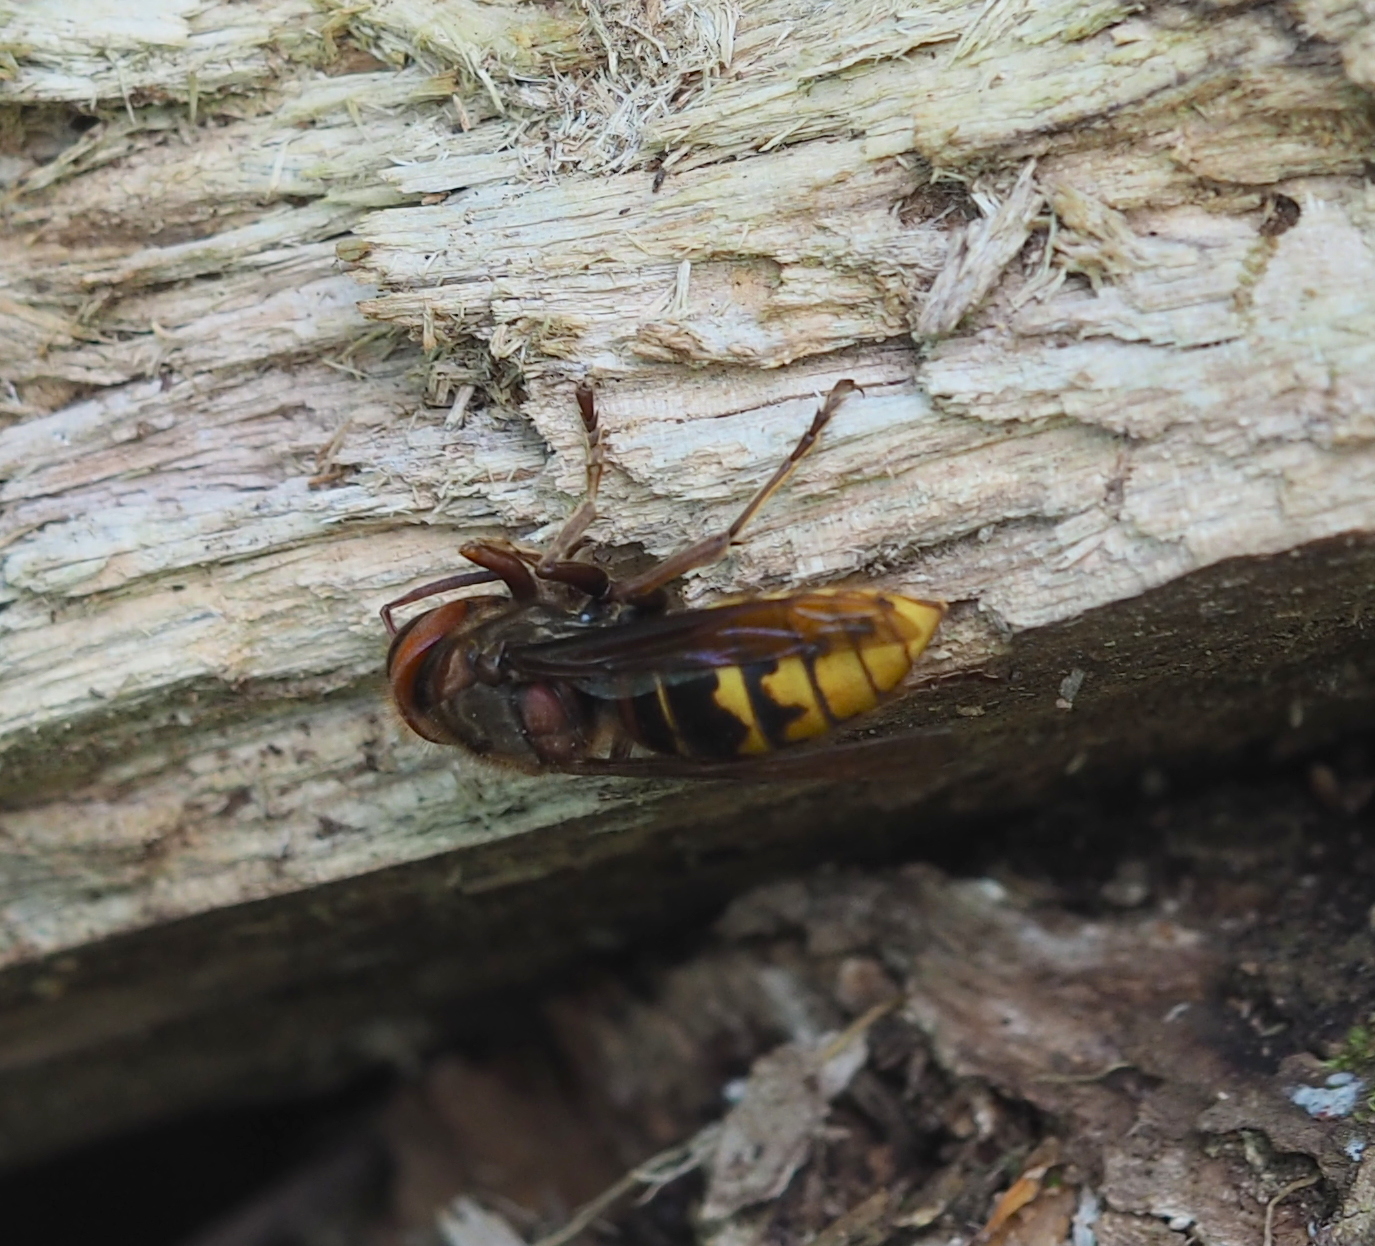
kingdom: Animalia
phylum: Arthropoda
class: Insecta
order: Hymenoptera
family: Vespidae
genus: Vespa
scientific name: Vespa crabro
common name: Hornet
